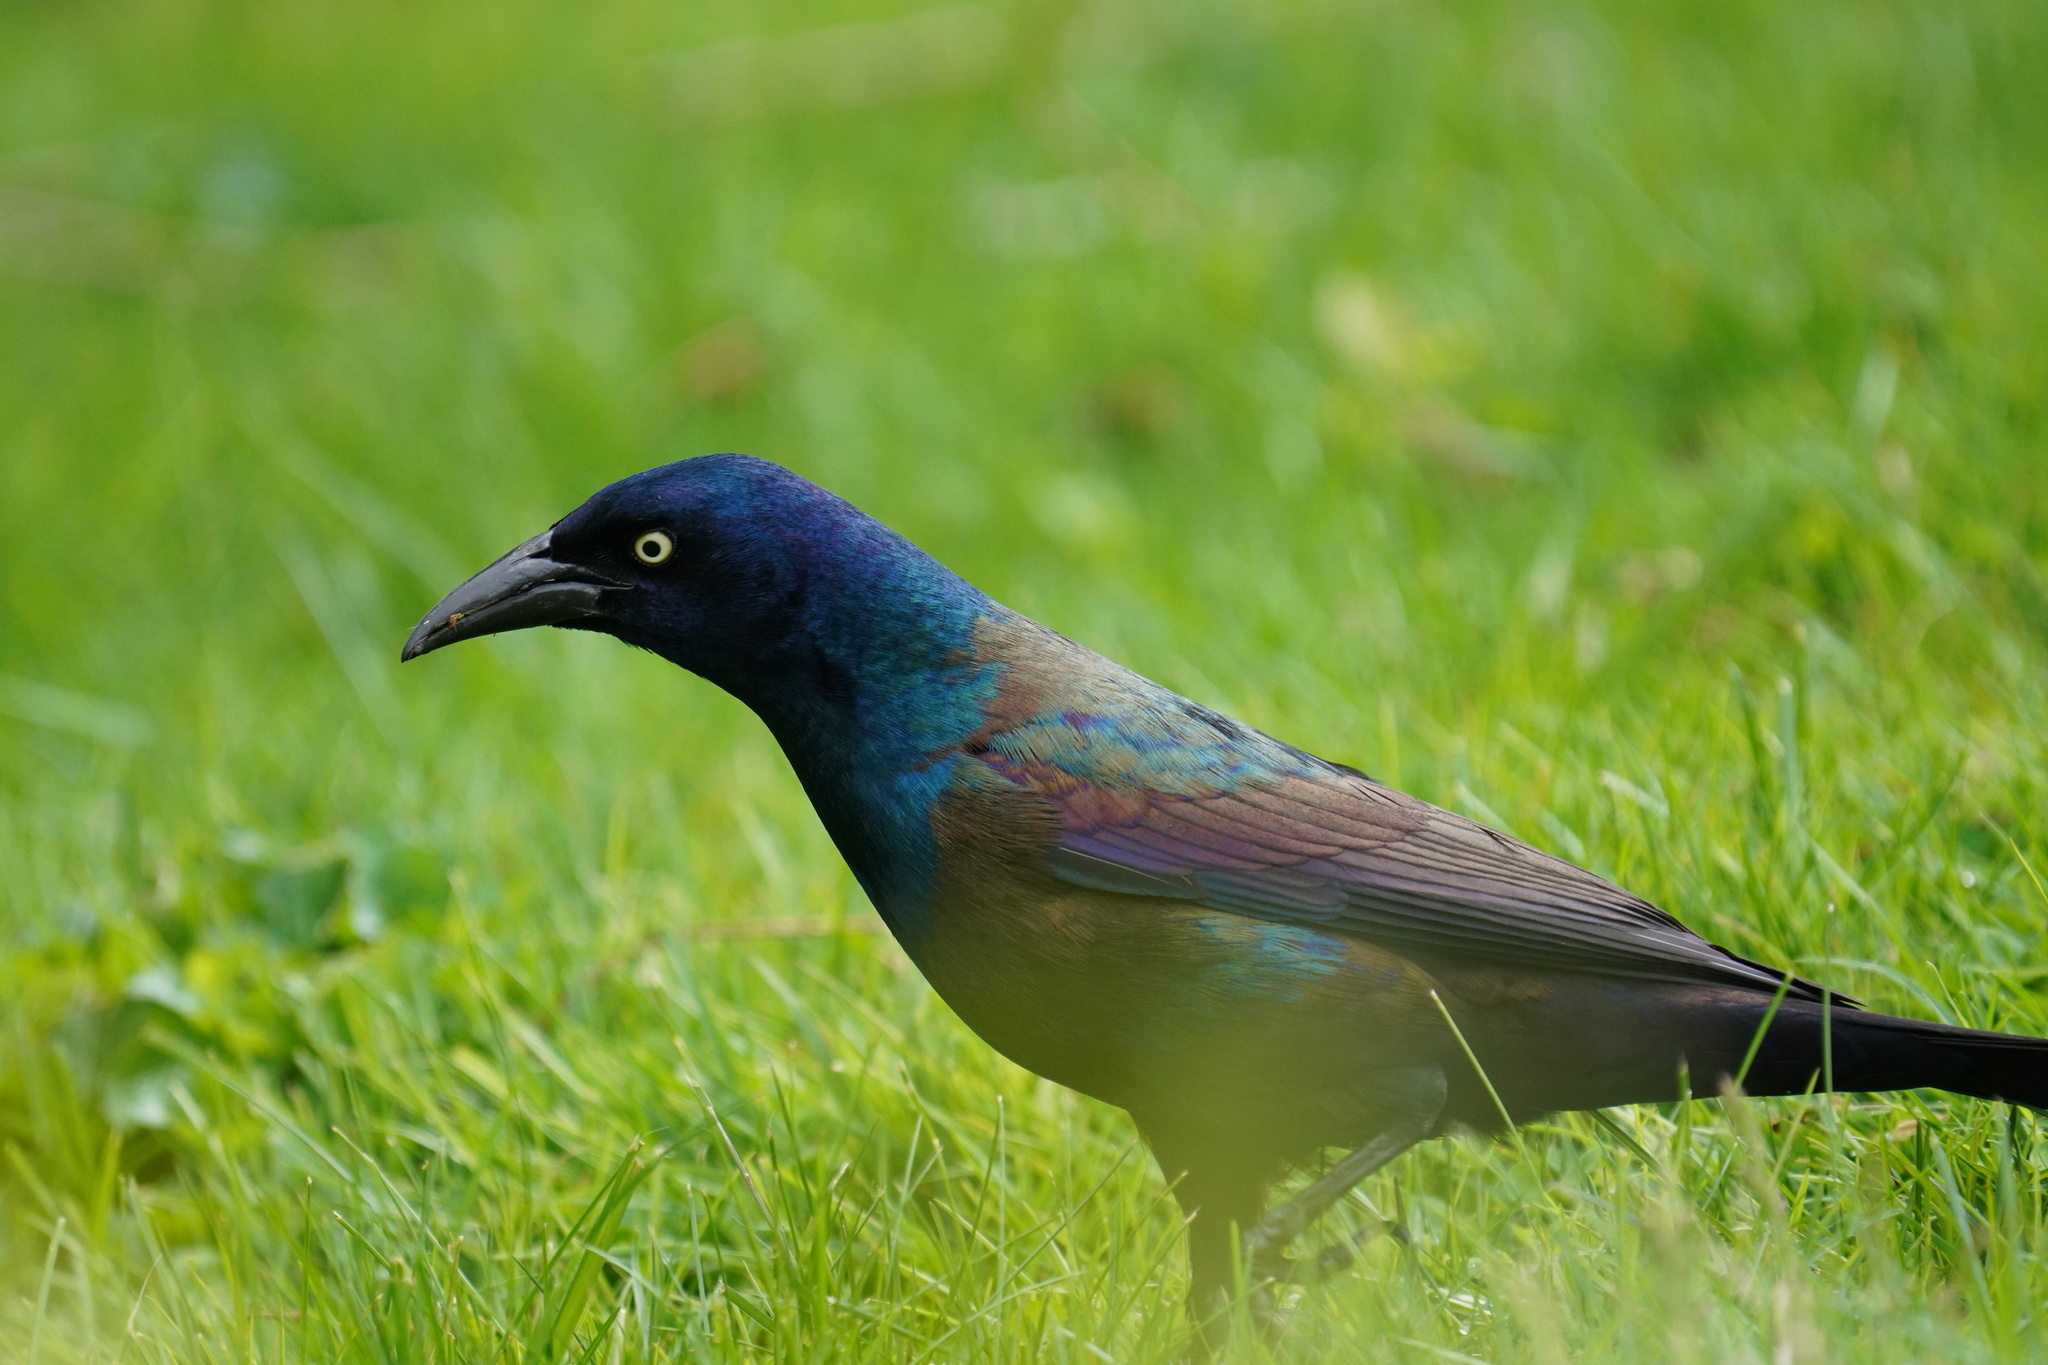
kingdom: Animalia
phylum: Chordata
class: Aves
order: Passeriformes
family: Icteridae
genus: Quiscalus
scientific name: Quiscalus quiscula
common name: Common grackle
